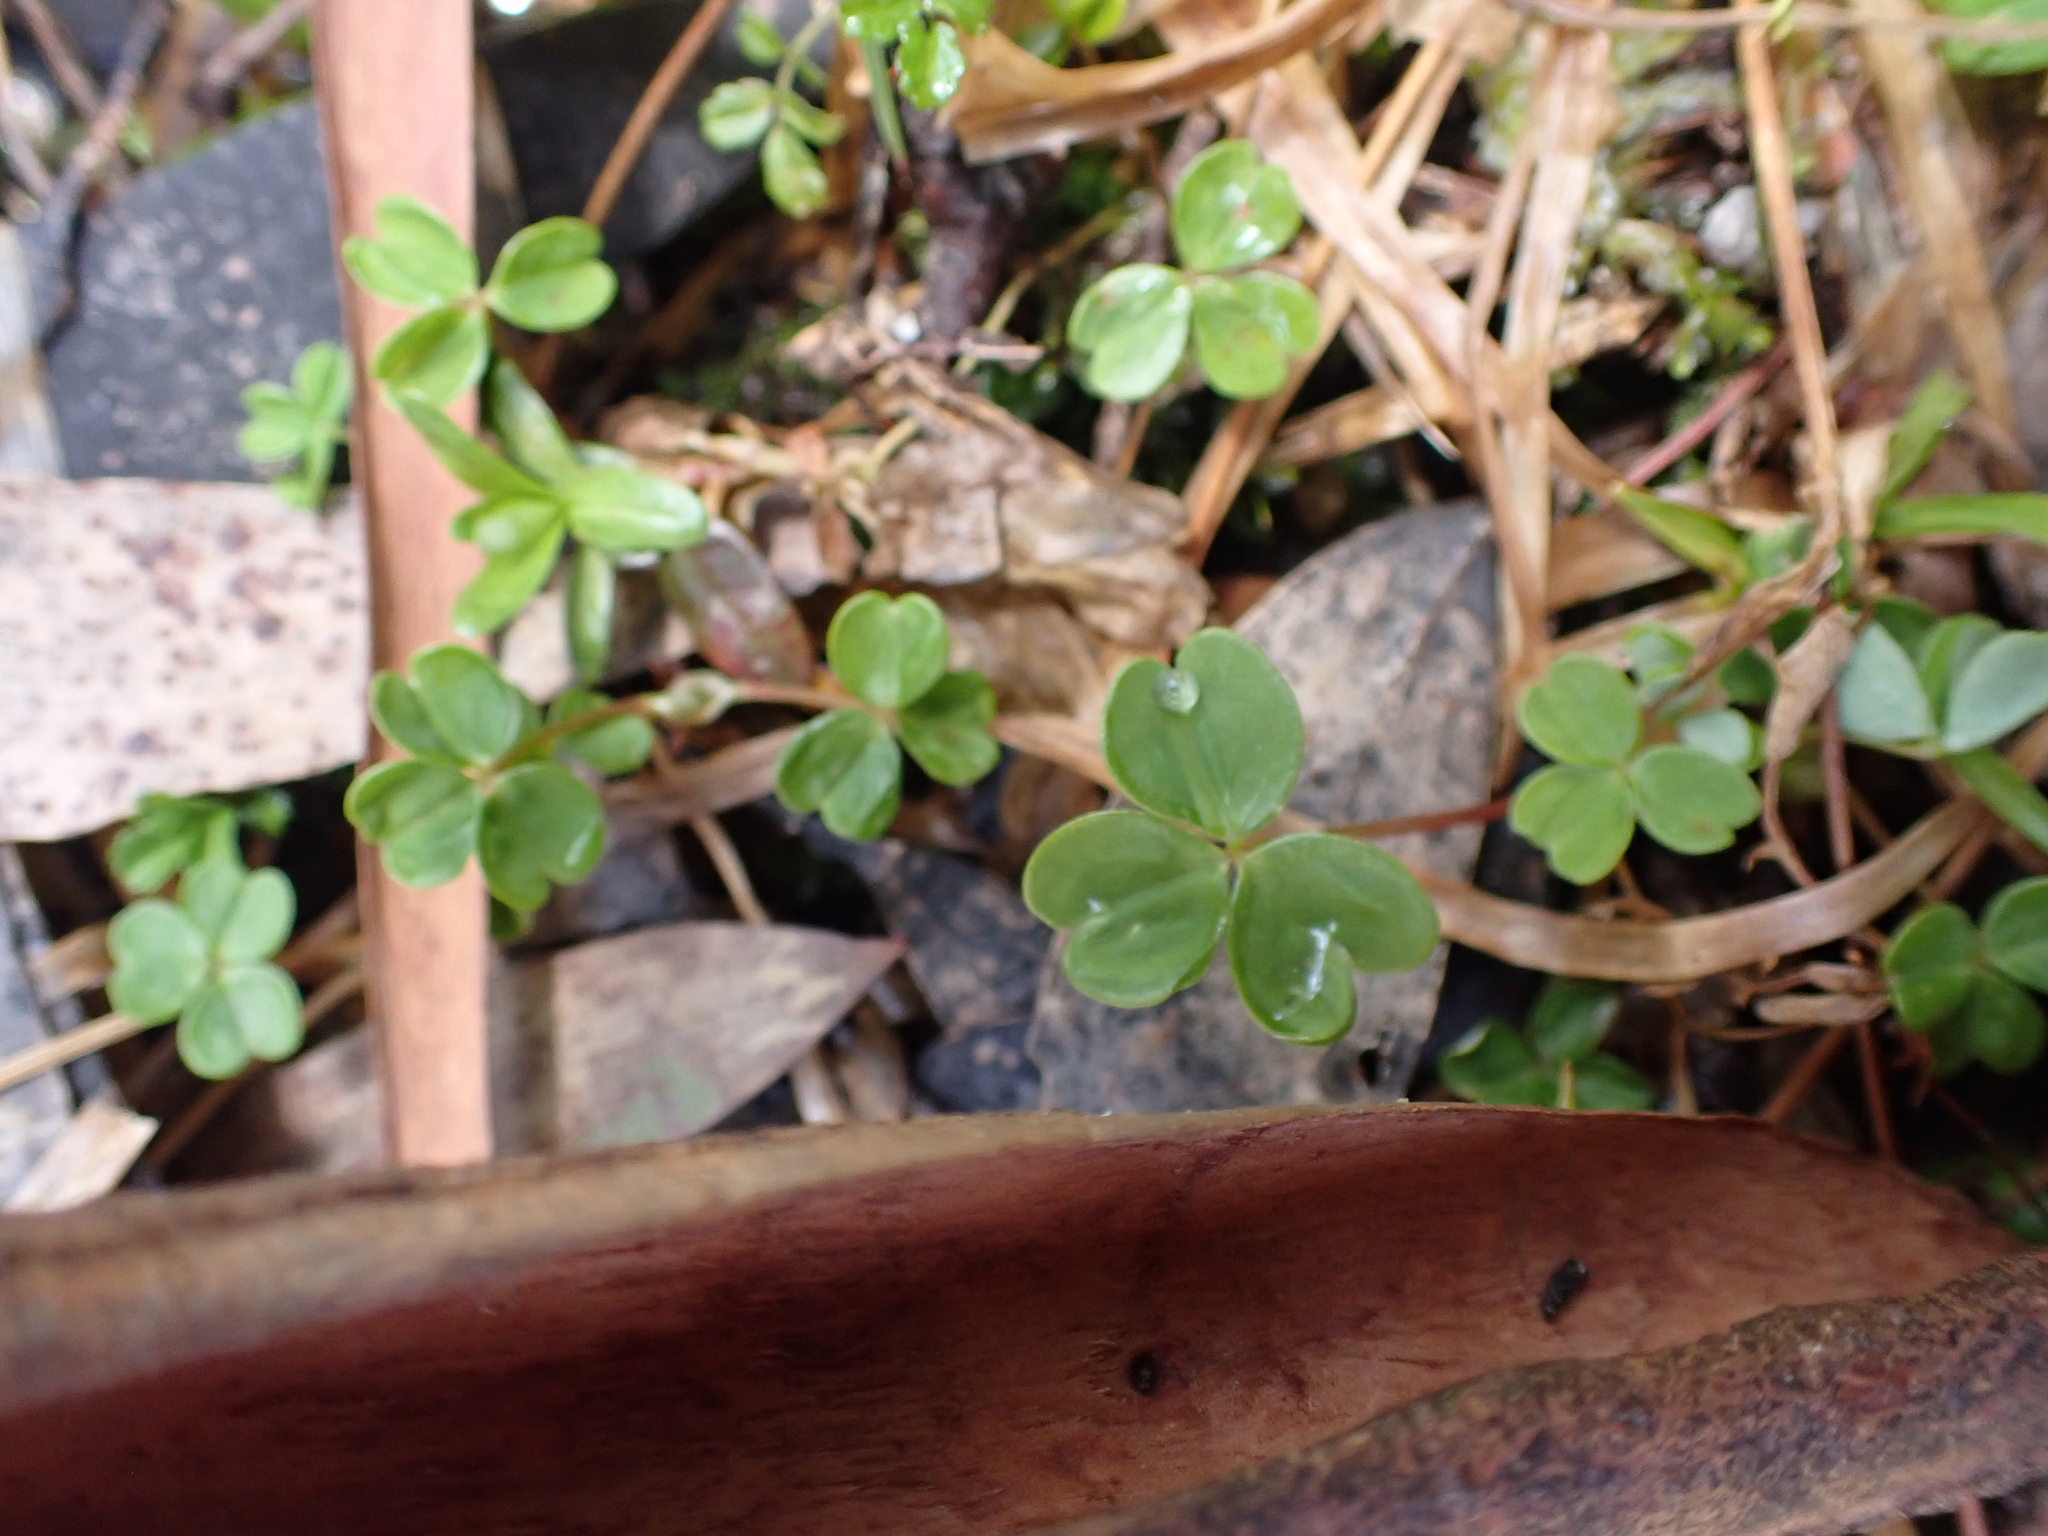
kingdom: Plantae
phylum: Tracheophyta
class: Magnoliopsida
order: Oxalidales
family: Oxalidaceae
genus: Oxalis
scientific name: Oxalis magellanica
